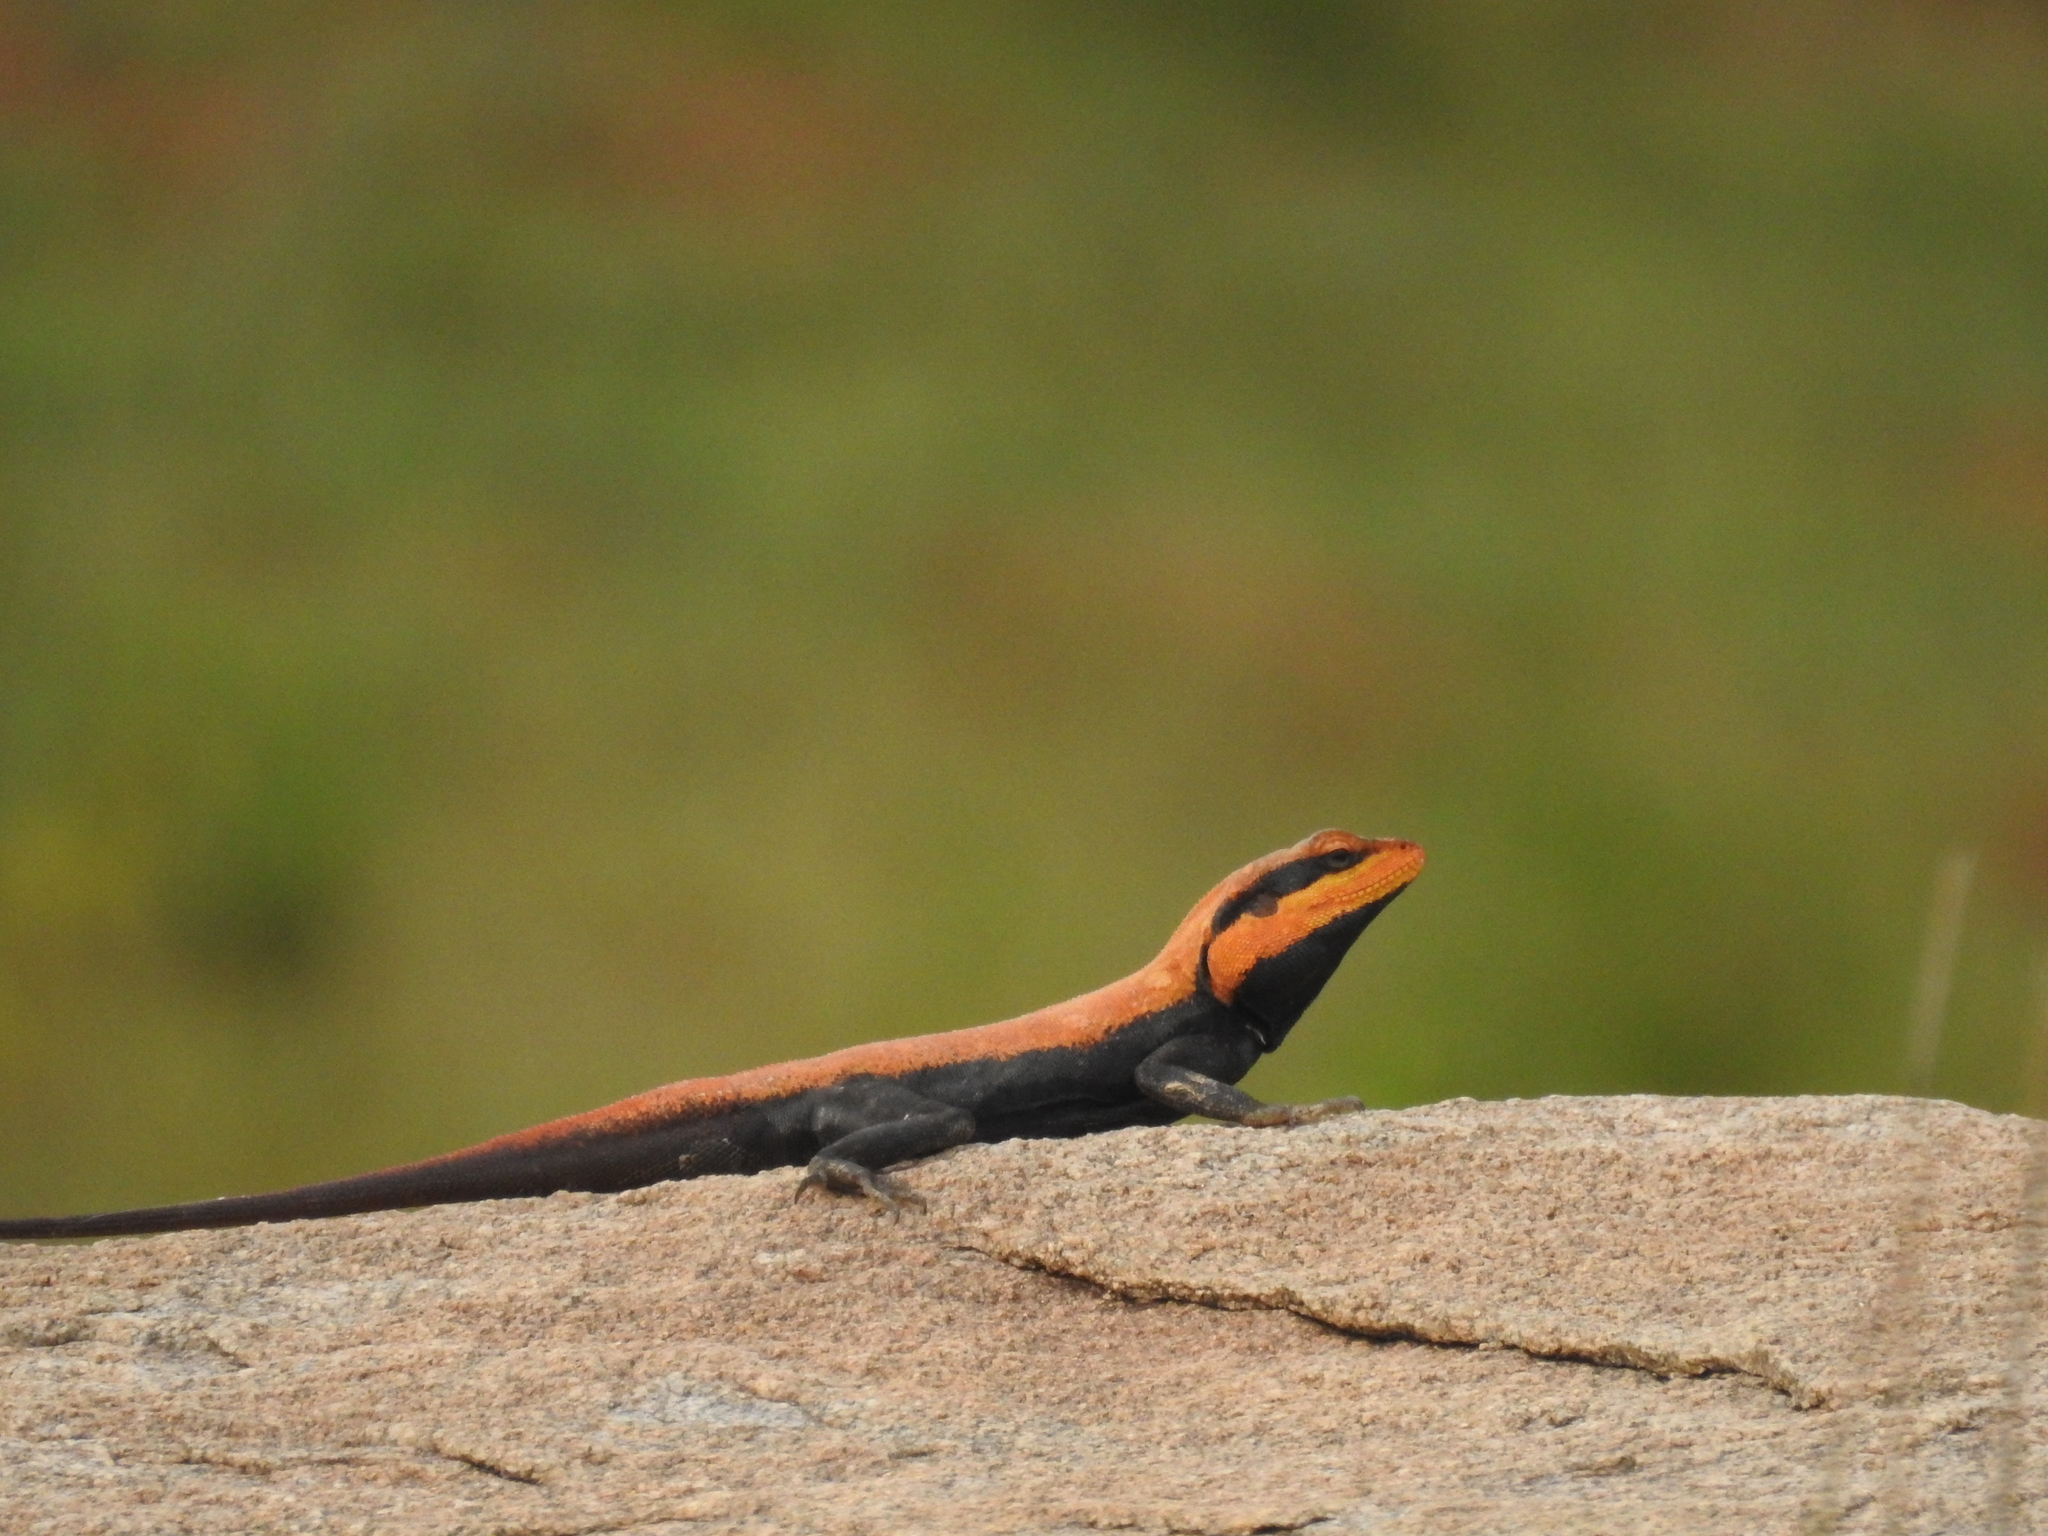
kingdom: Animalia
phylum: Chordata
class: Squamata
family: Agamidae
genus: Psammophilus
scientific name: Psammophilus dorsalis
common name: South indian rock agama
